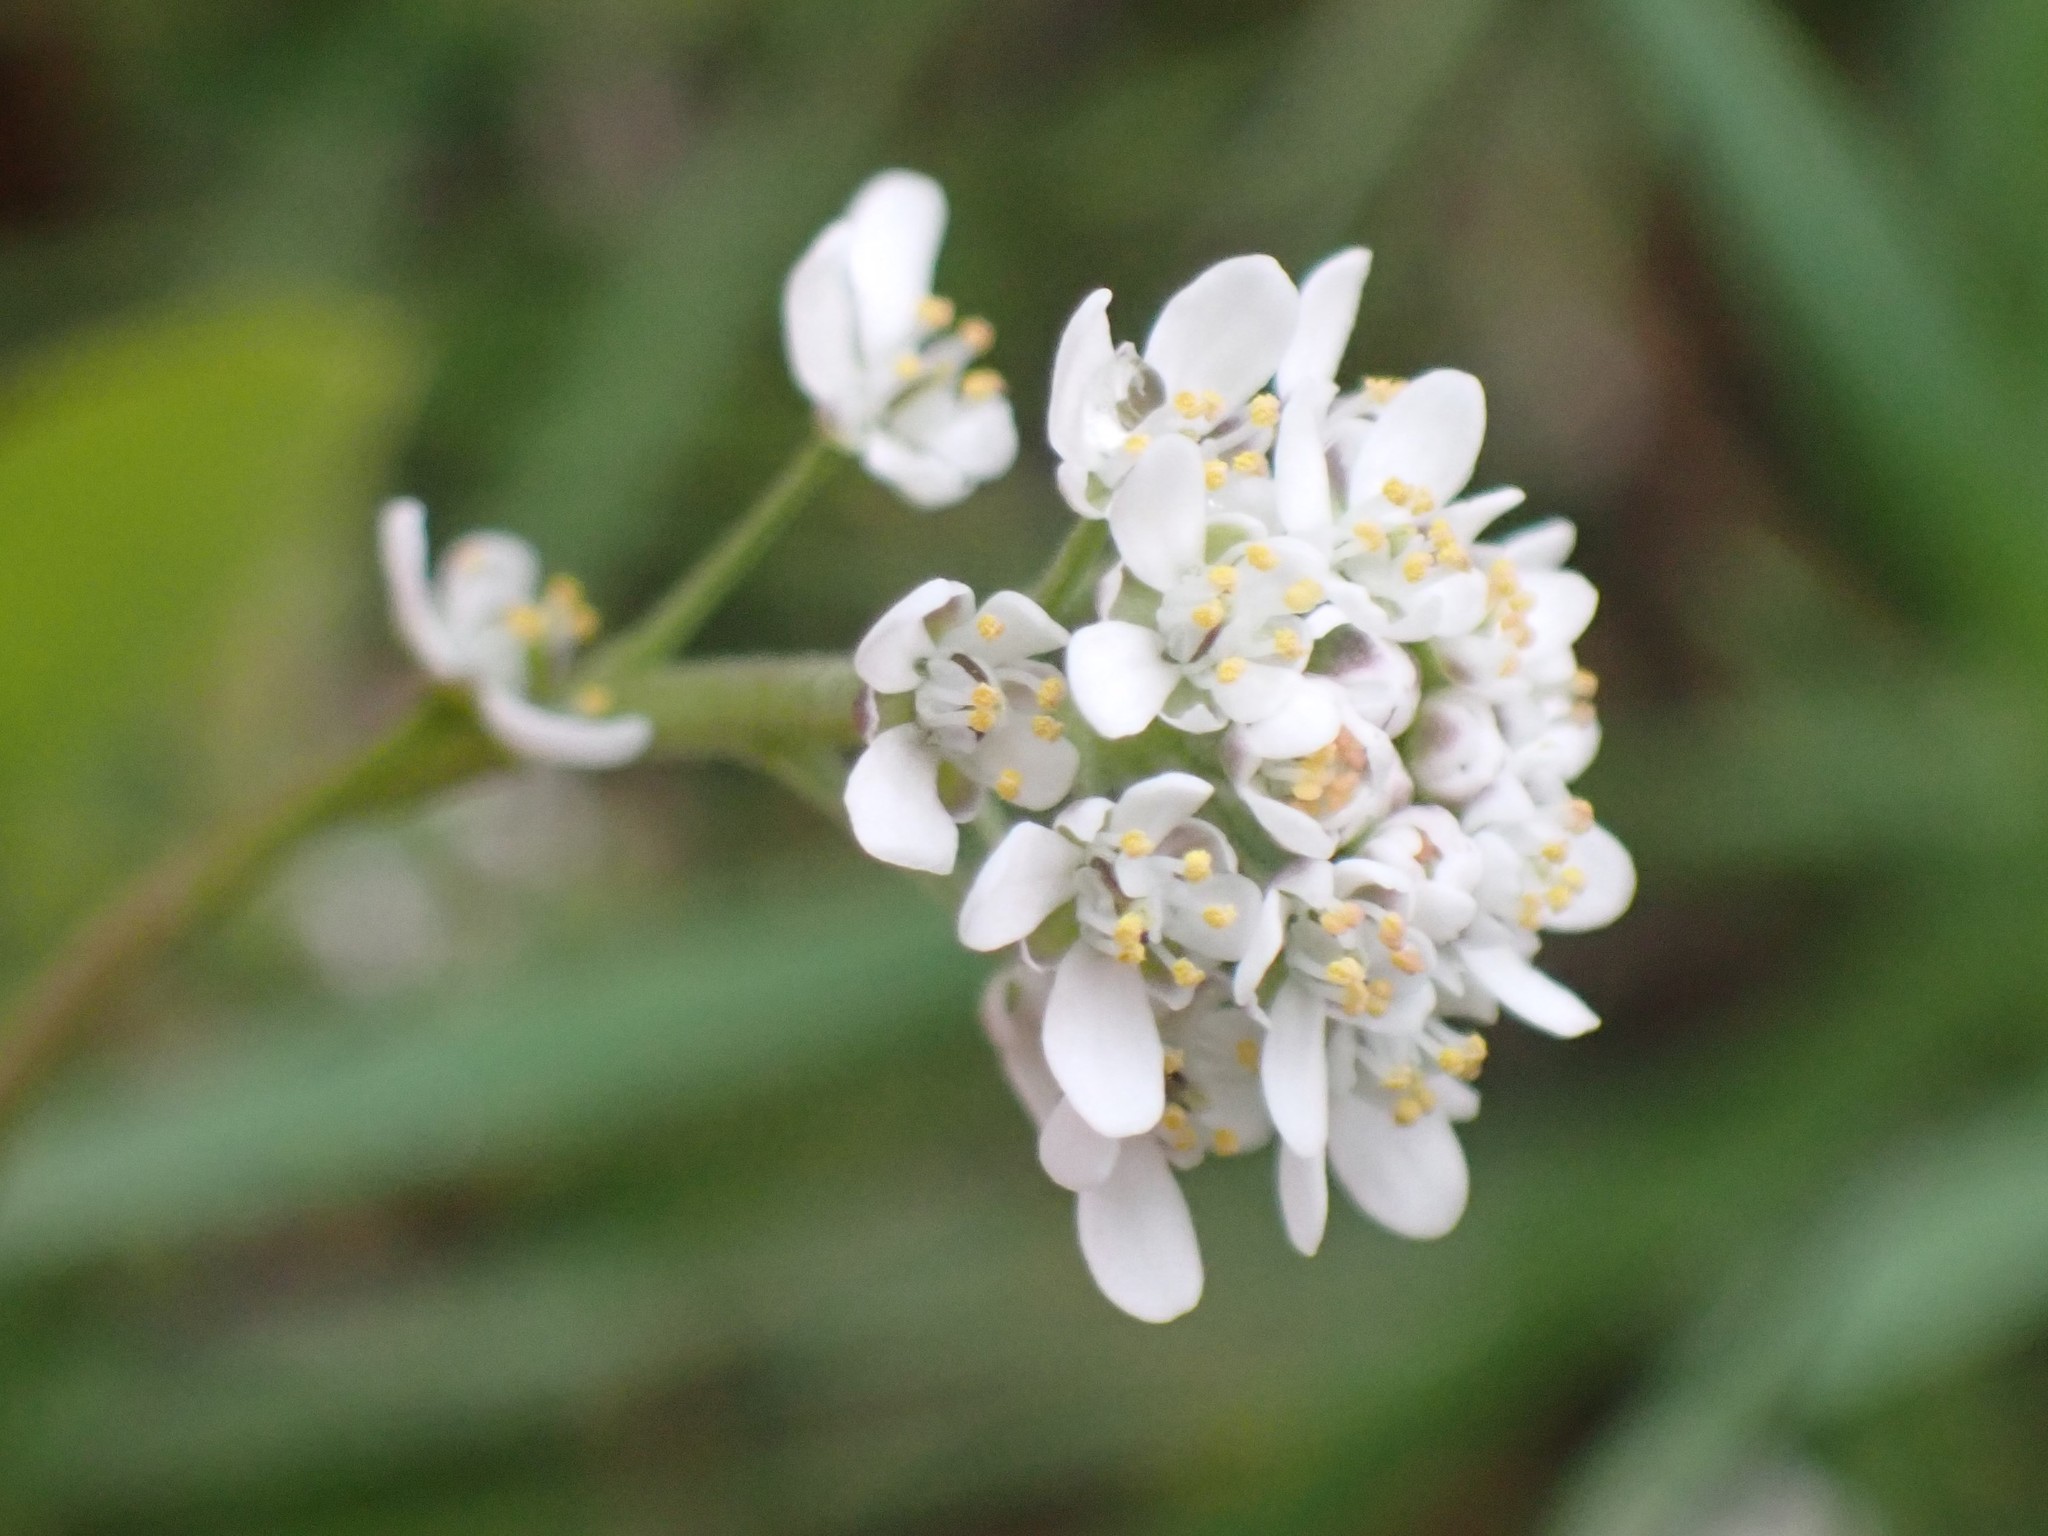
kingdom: Plantae
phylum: Tracheophyta
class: Magnoliopsida
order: Brassicales
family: Brassicaceae
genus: Teesdalia
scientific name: Teesdalia nudicaulis
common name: Shepherd's cress
